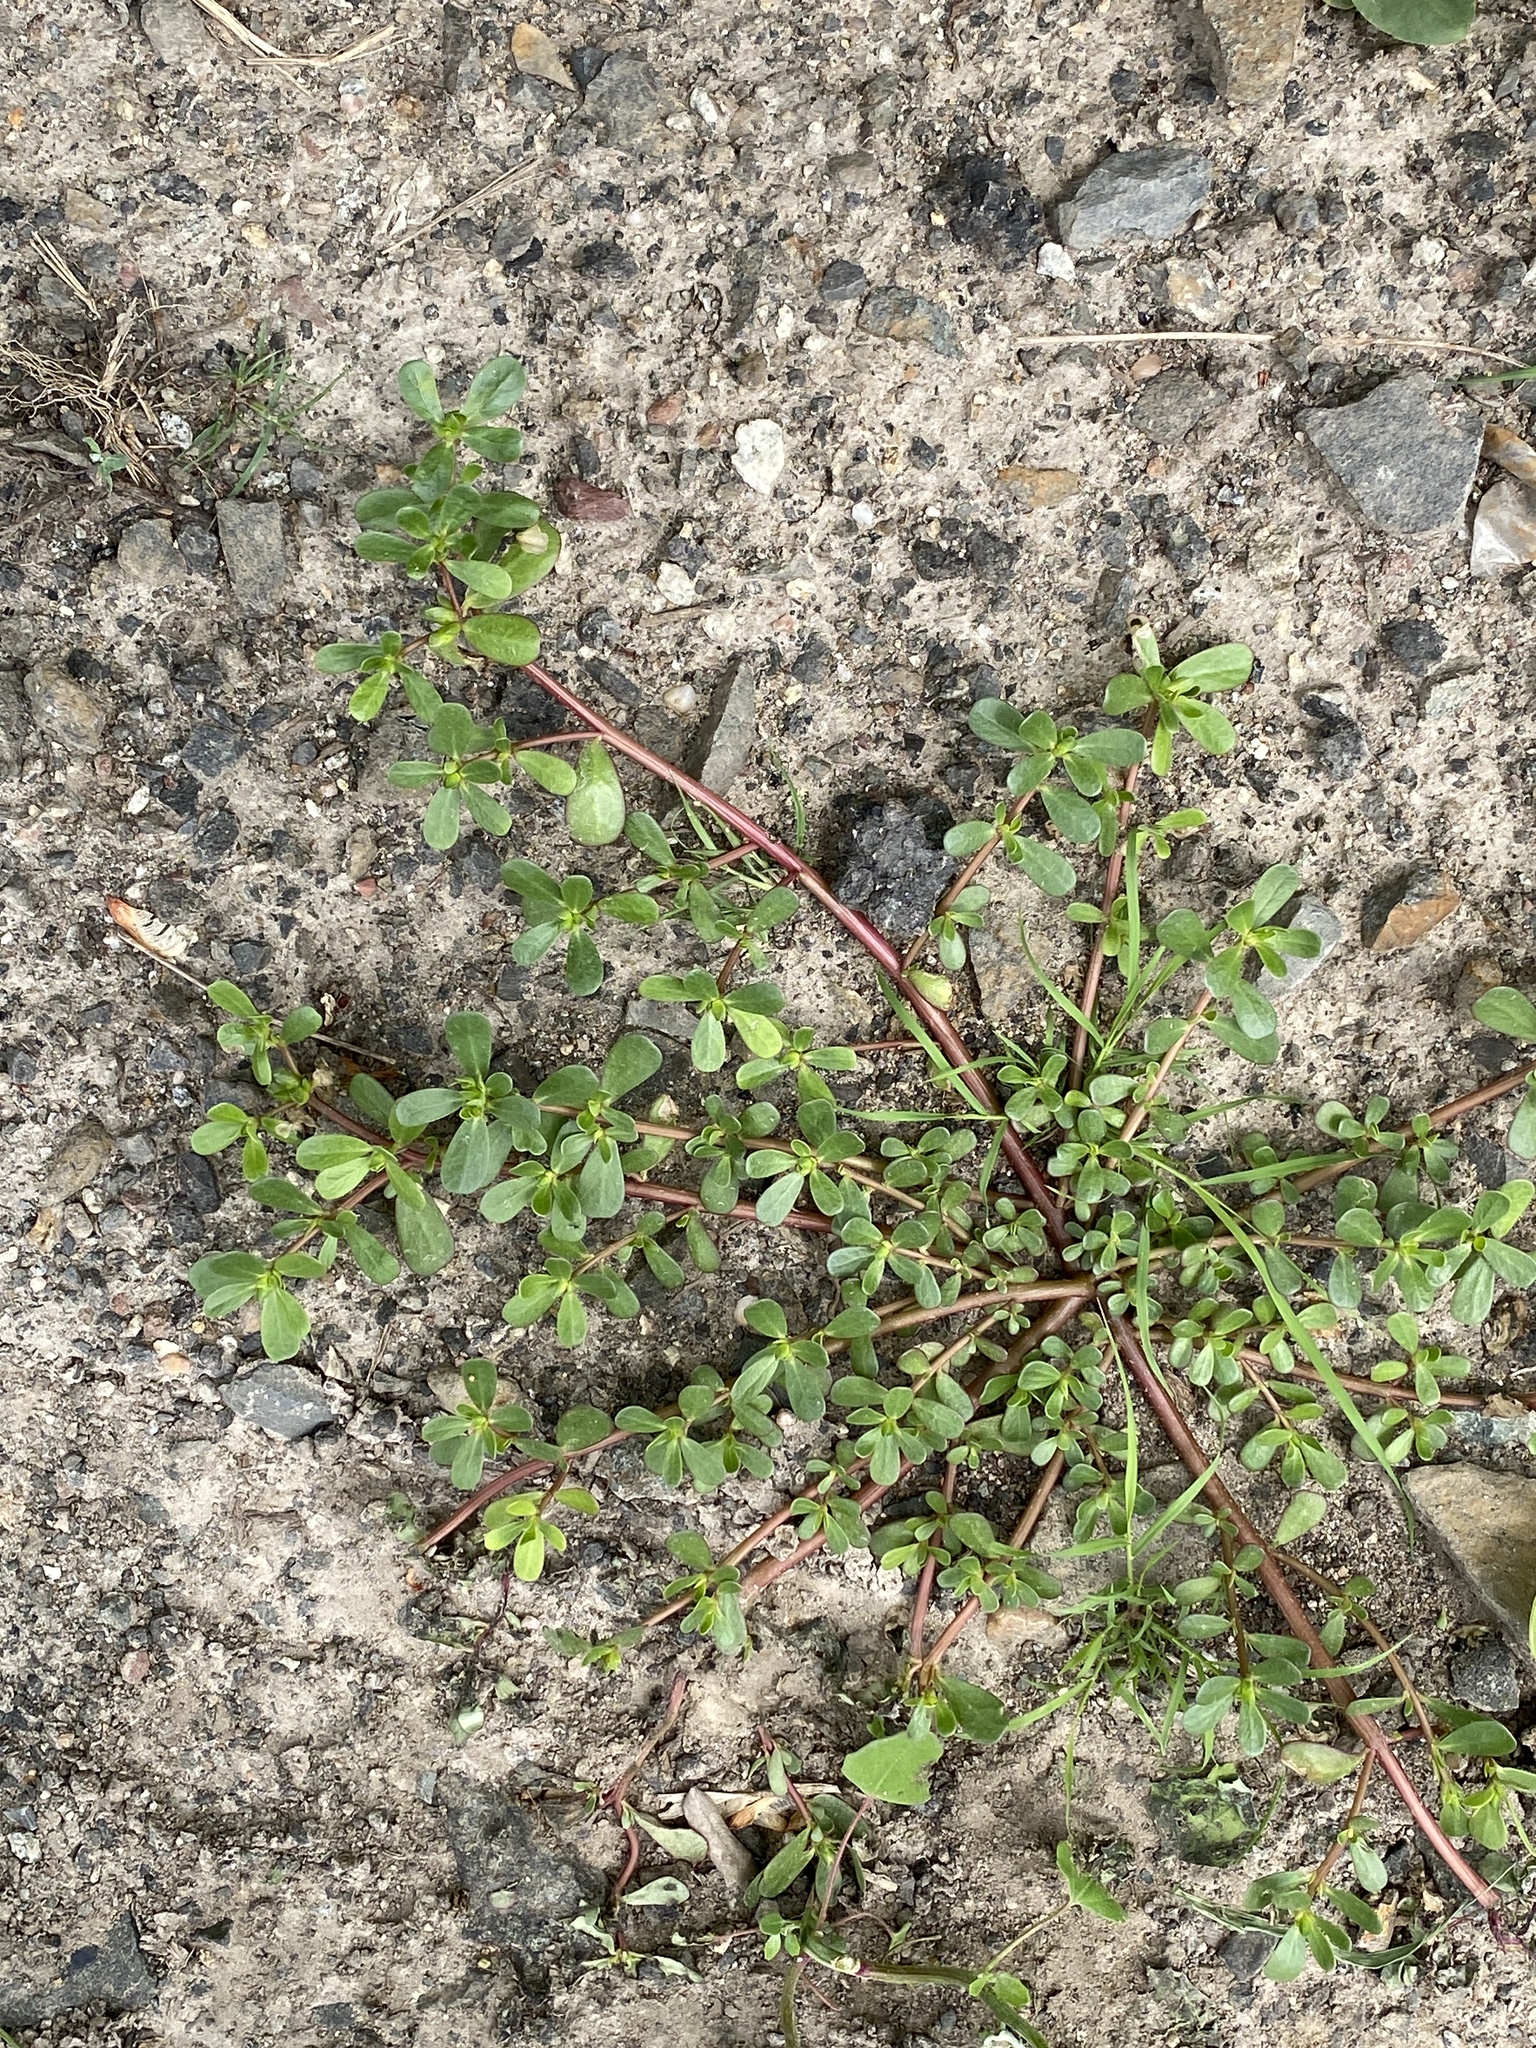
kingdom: Plantae
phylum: Tracheophyta
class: Magnoliopsida
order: Caryophyllales
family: Portulacaceae
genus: Portulaca
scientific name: Portulaca oleracea
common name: Common purslane
